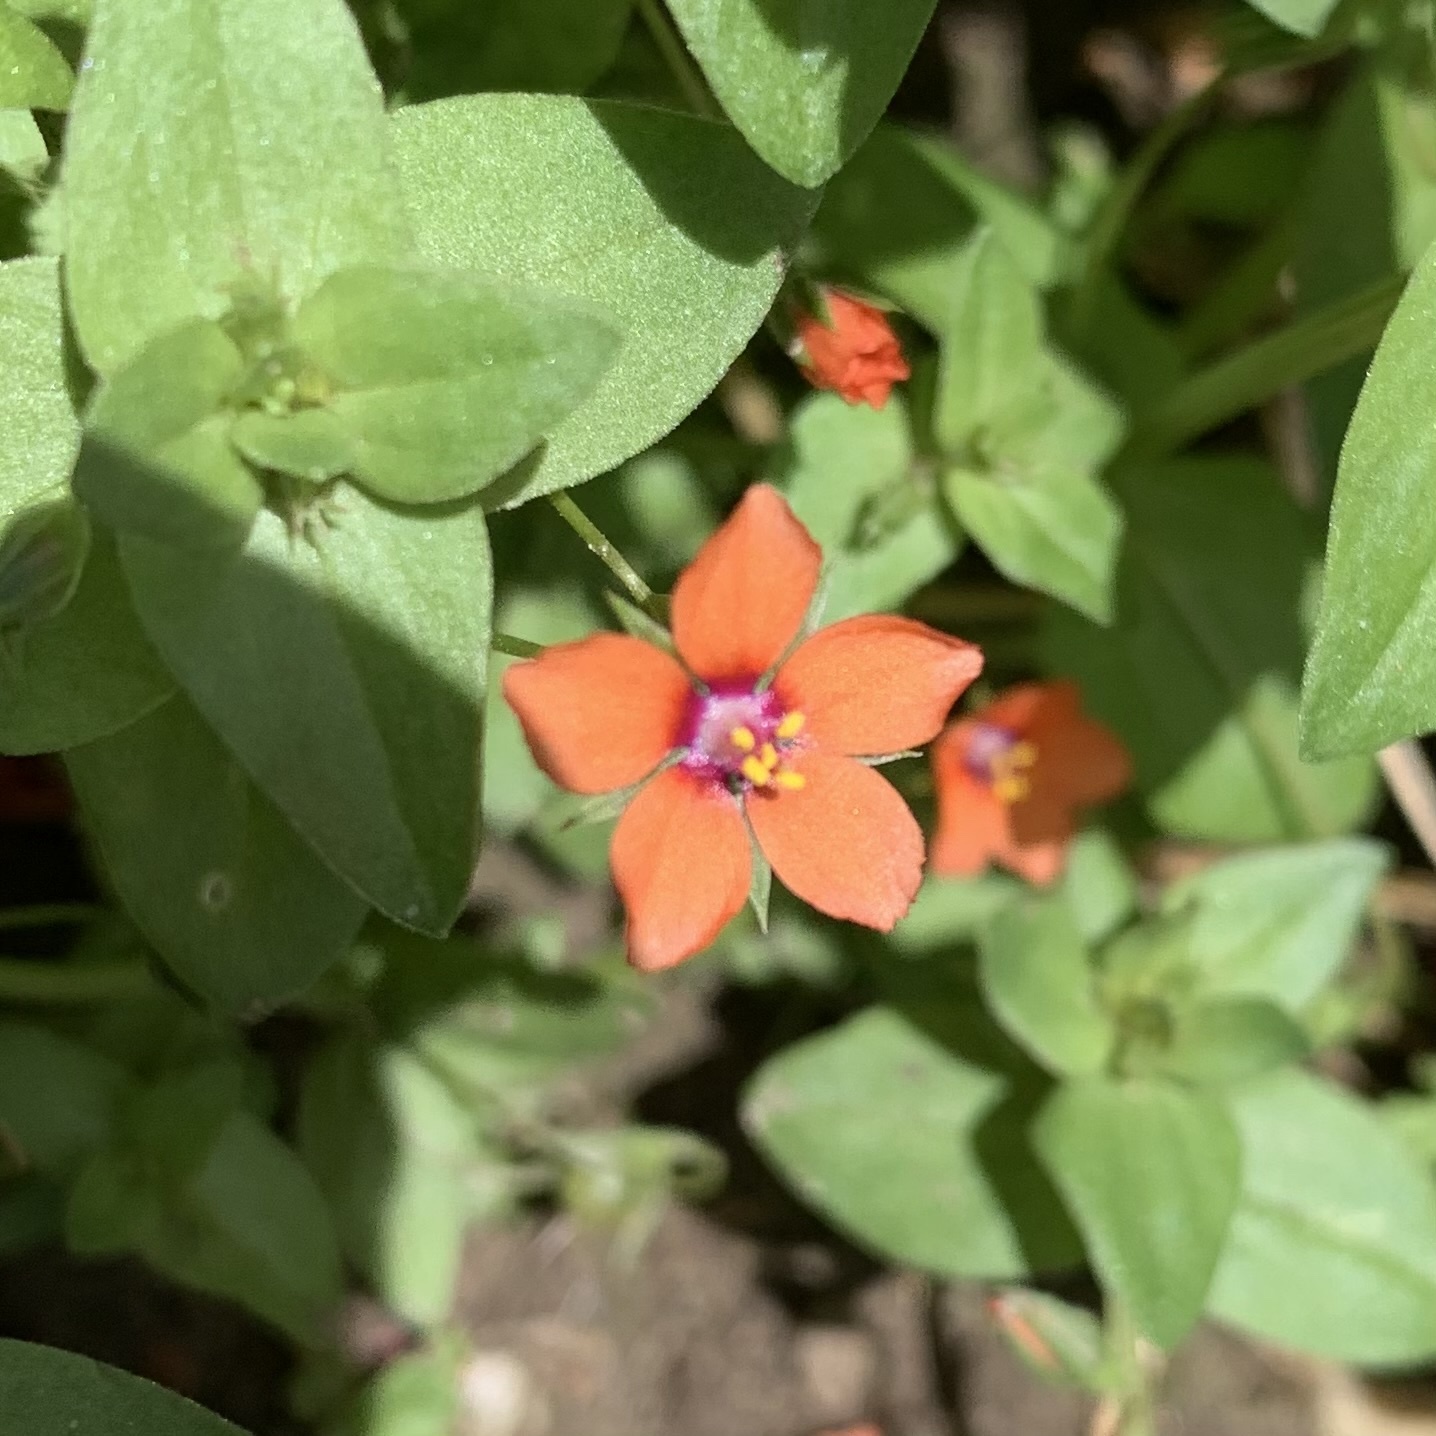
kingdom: Plantae
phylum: Tracheophyta
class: Magnoliopsida
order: Ericales
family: Primulaceae
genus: Lysimachia
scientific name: Lysimachia arvensis
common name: Scarlet pimpernel
